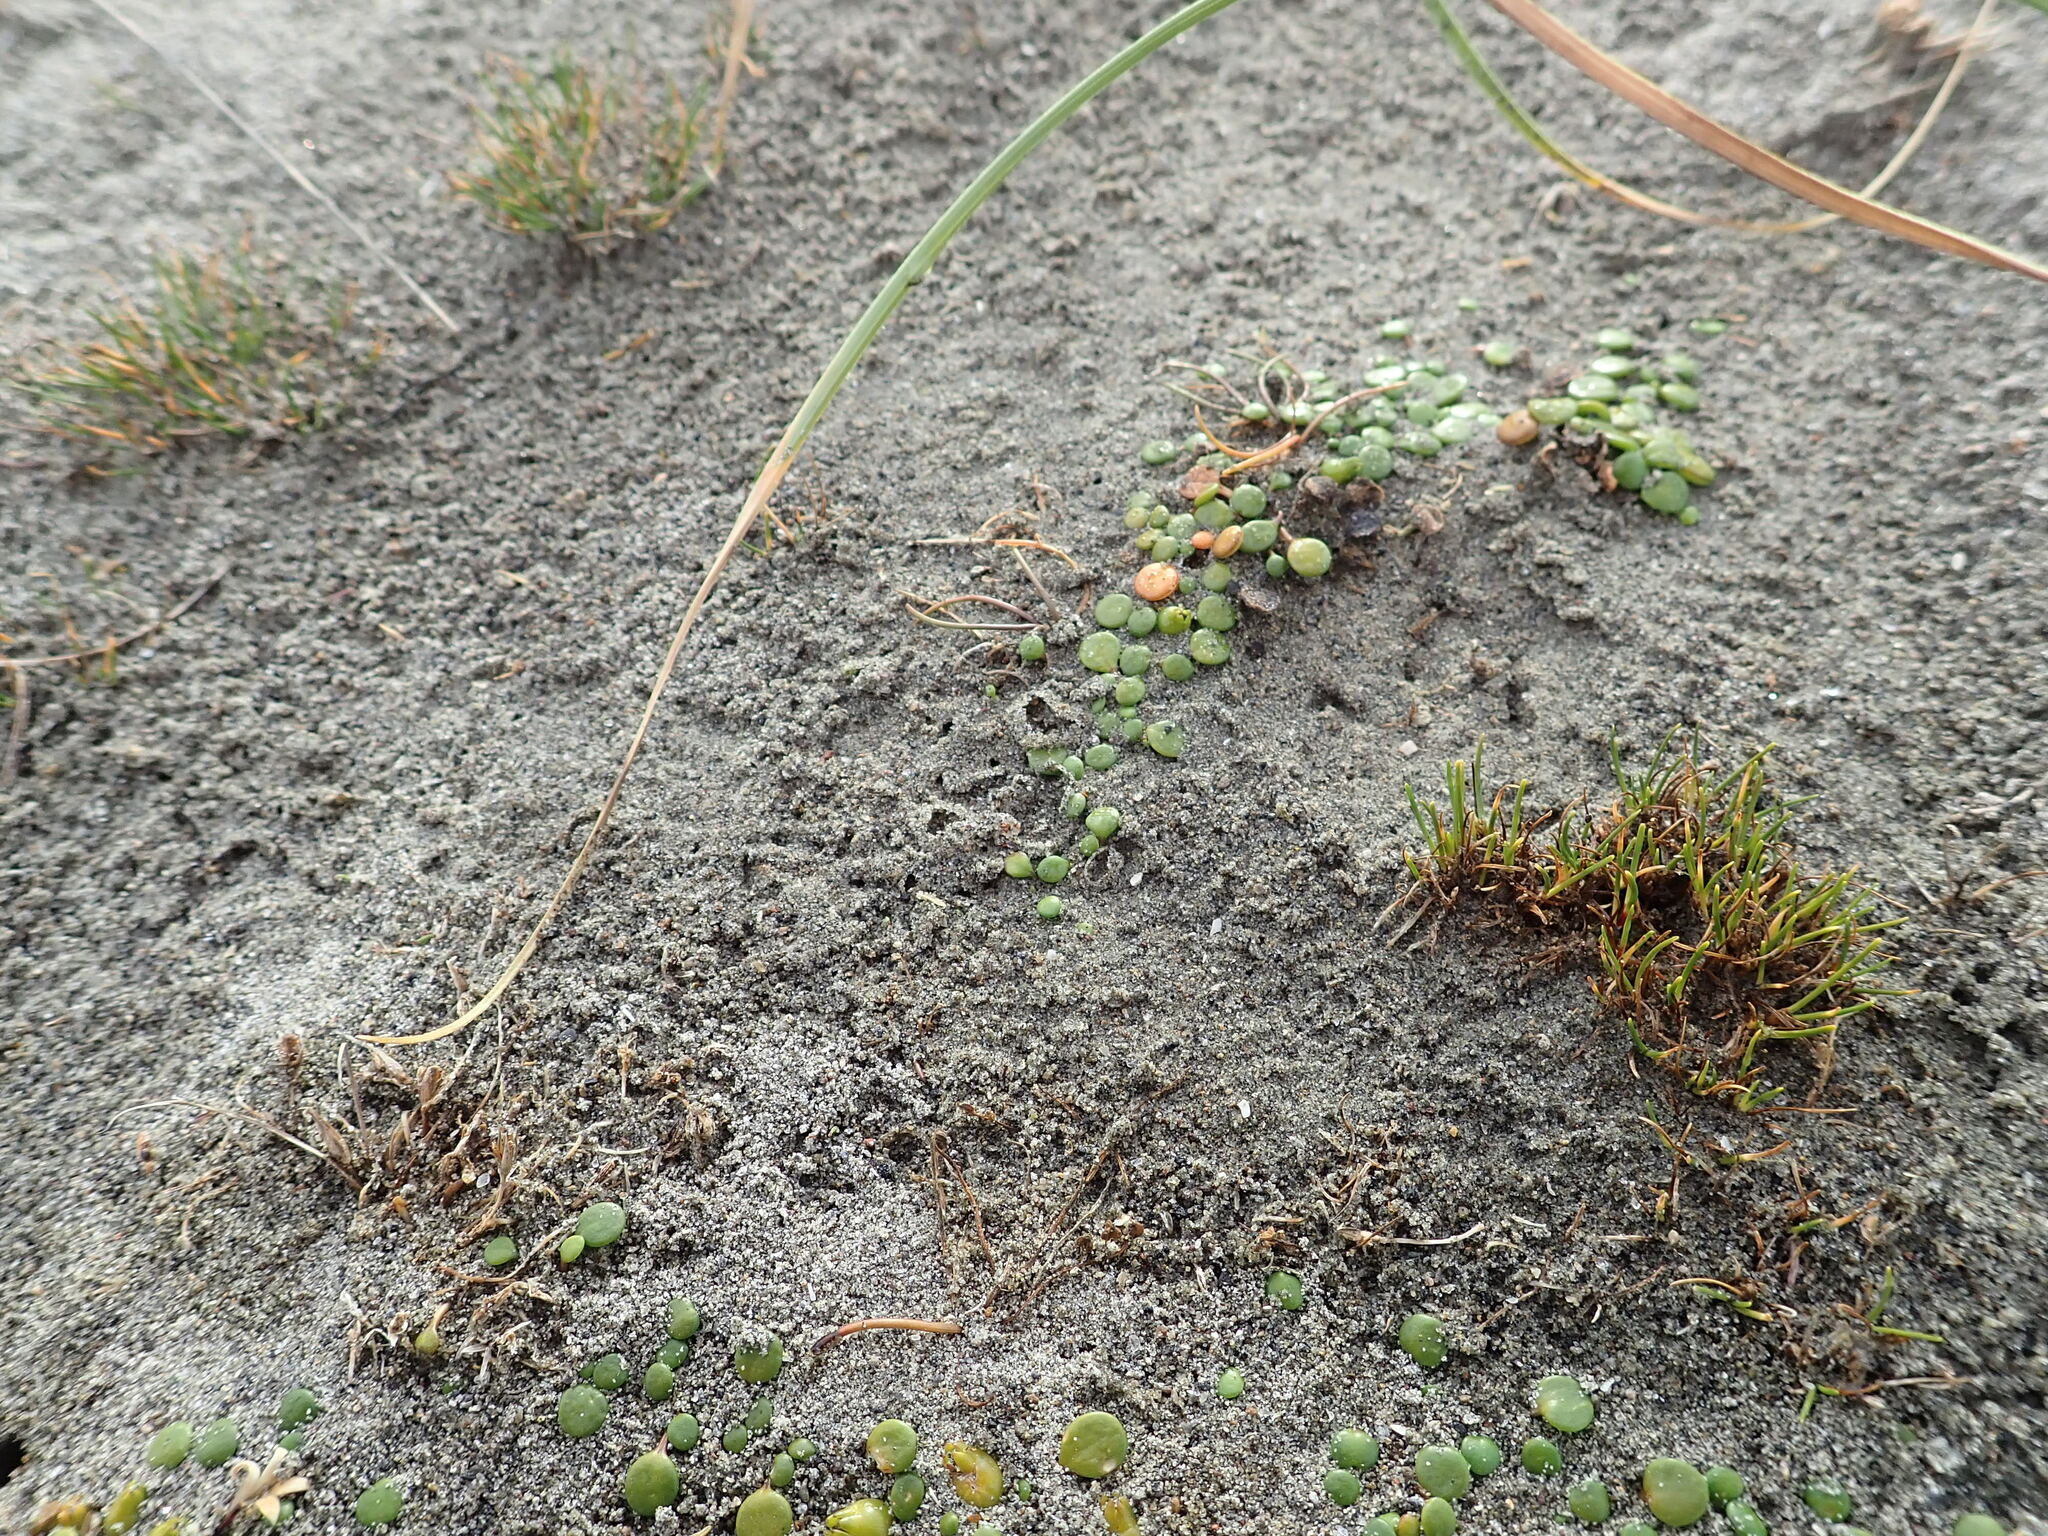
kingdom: Plantae
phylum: Tracheophyta
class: Liliopsida
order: Poales
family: Cyperaceae
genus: Isolepis
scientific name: Isolepis basilaris
